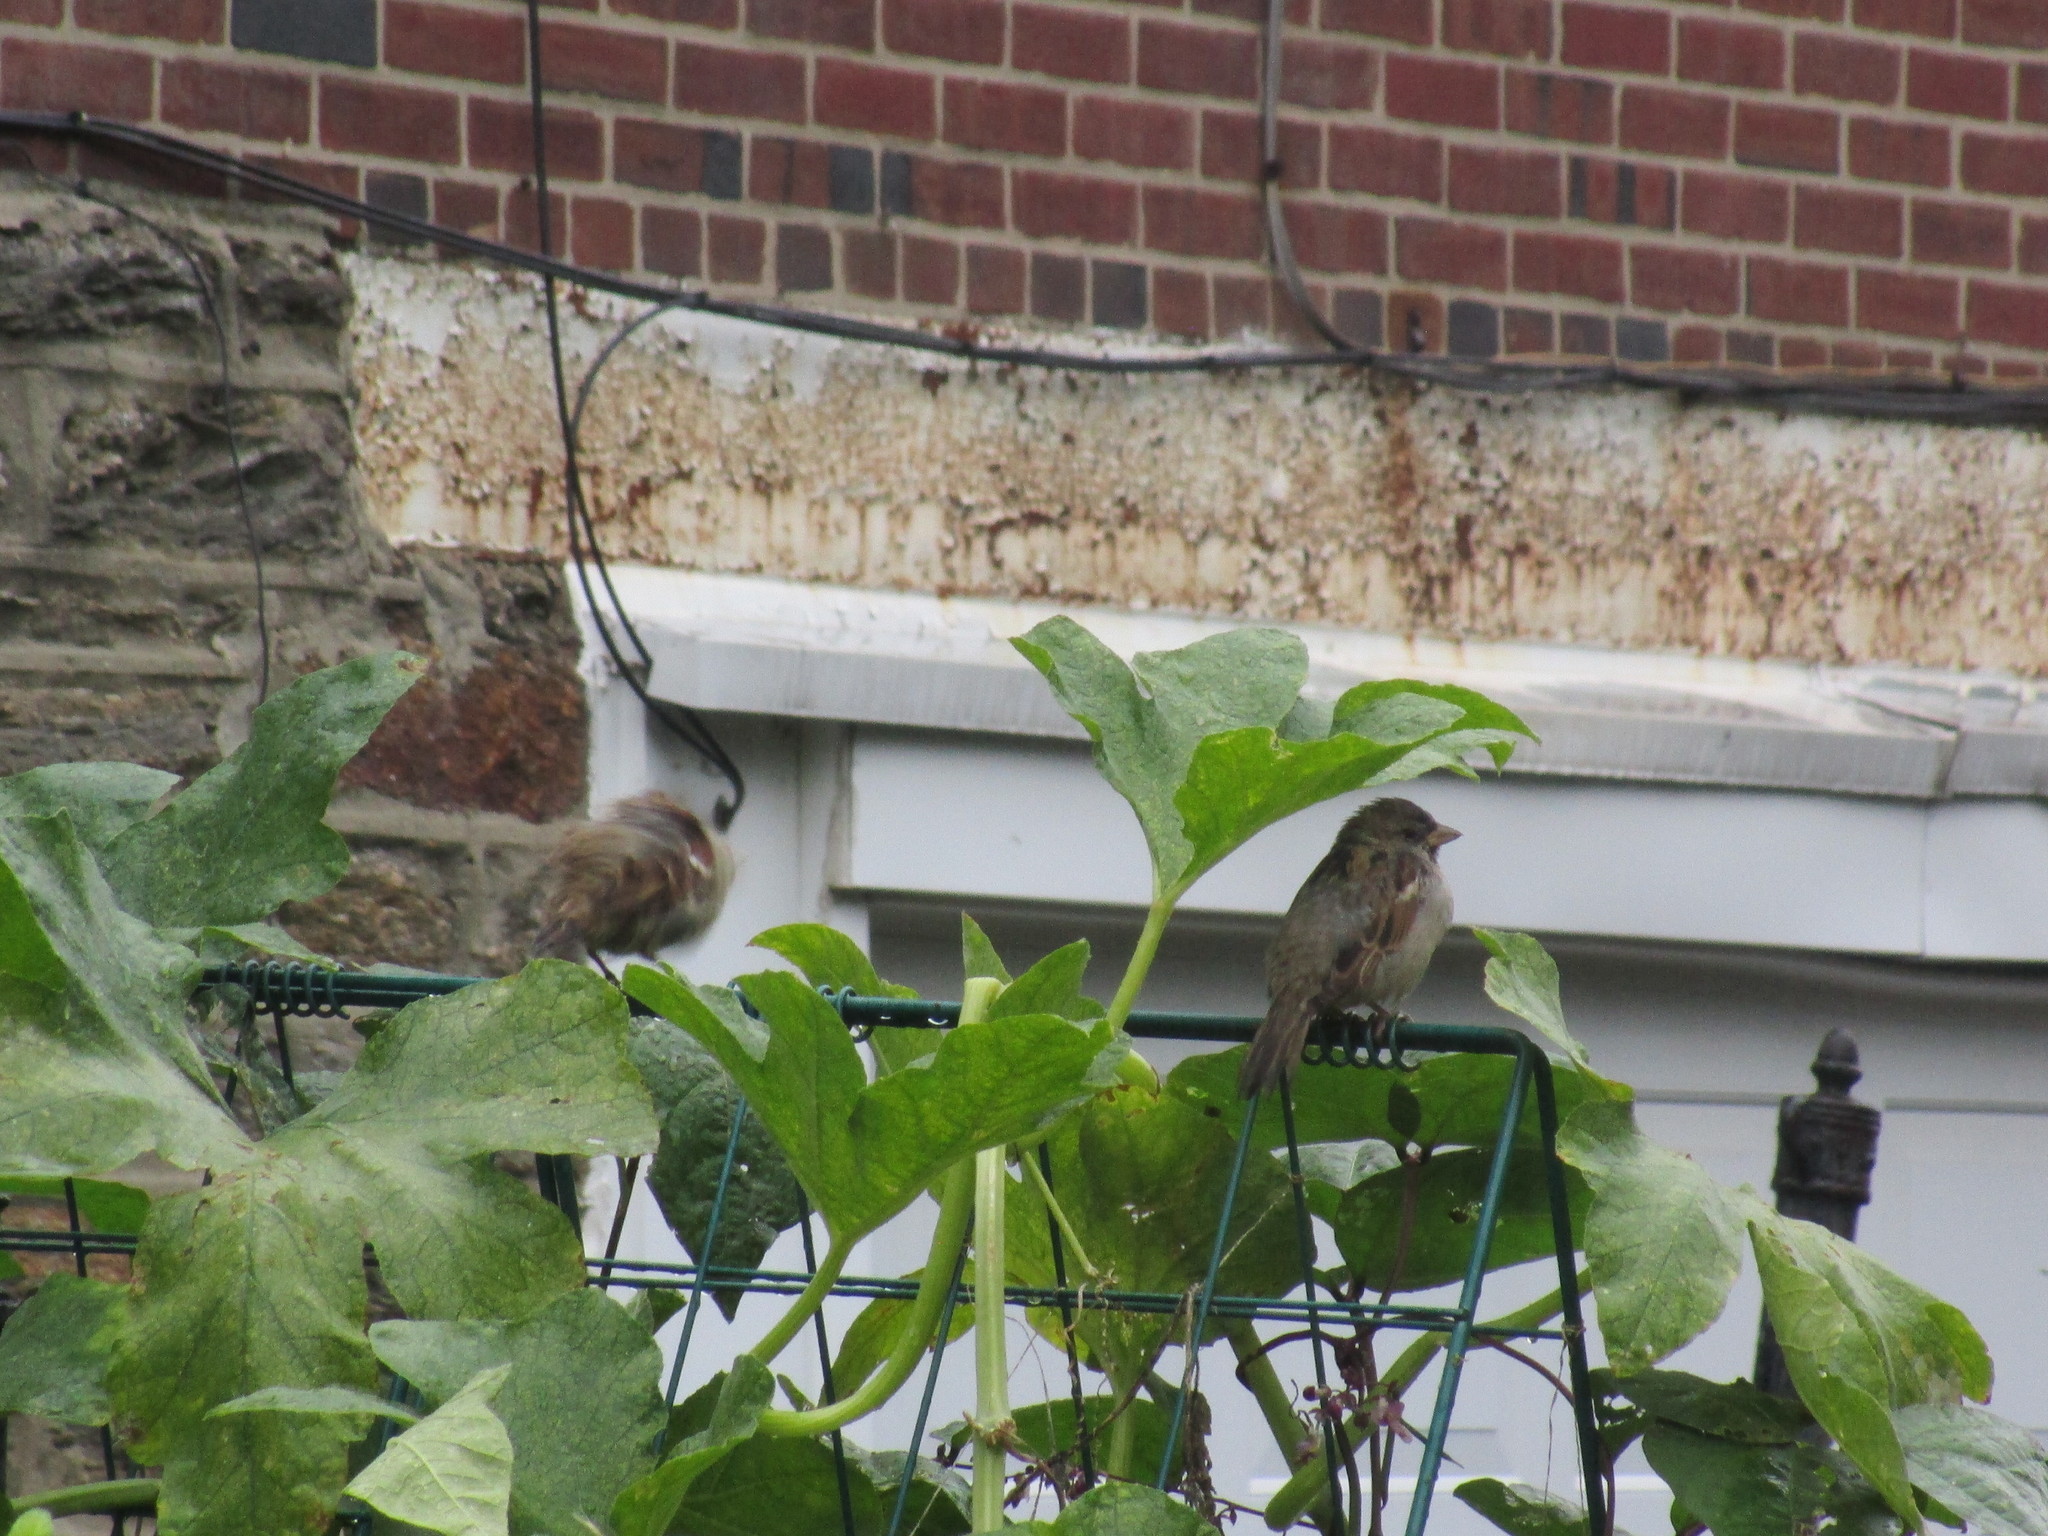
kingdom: Animalia
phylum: Chordata
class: Aves
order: Passeriformes
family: Passeridae
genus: Passer
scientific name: Passer domesticus
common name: House sparrow
